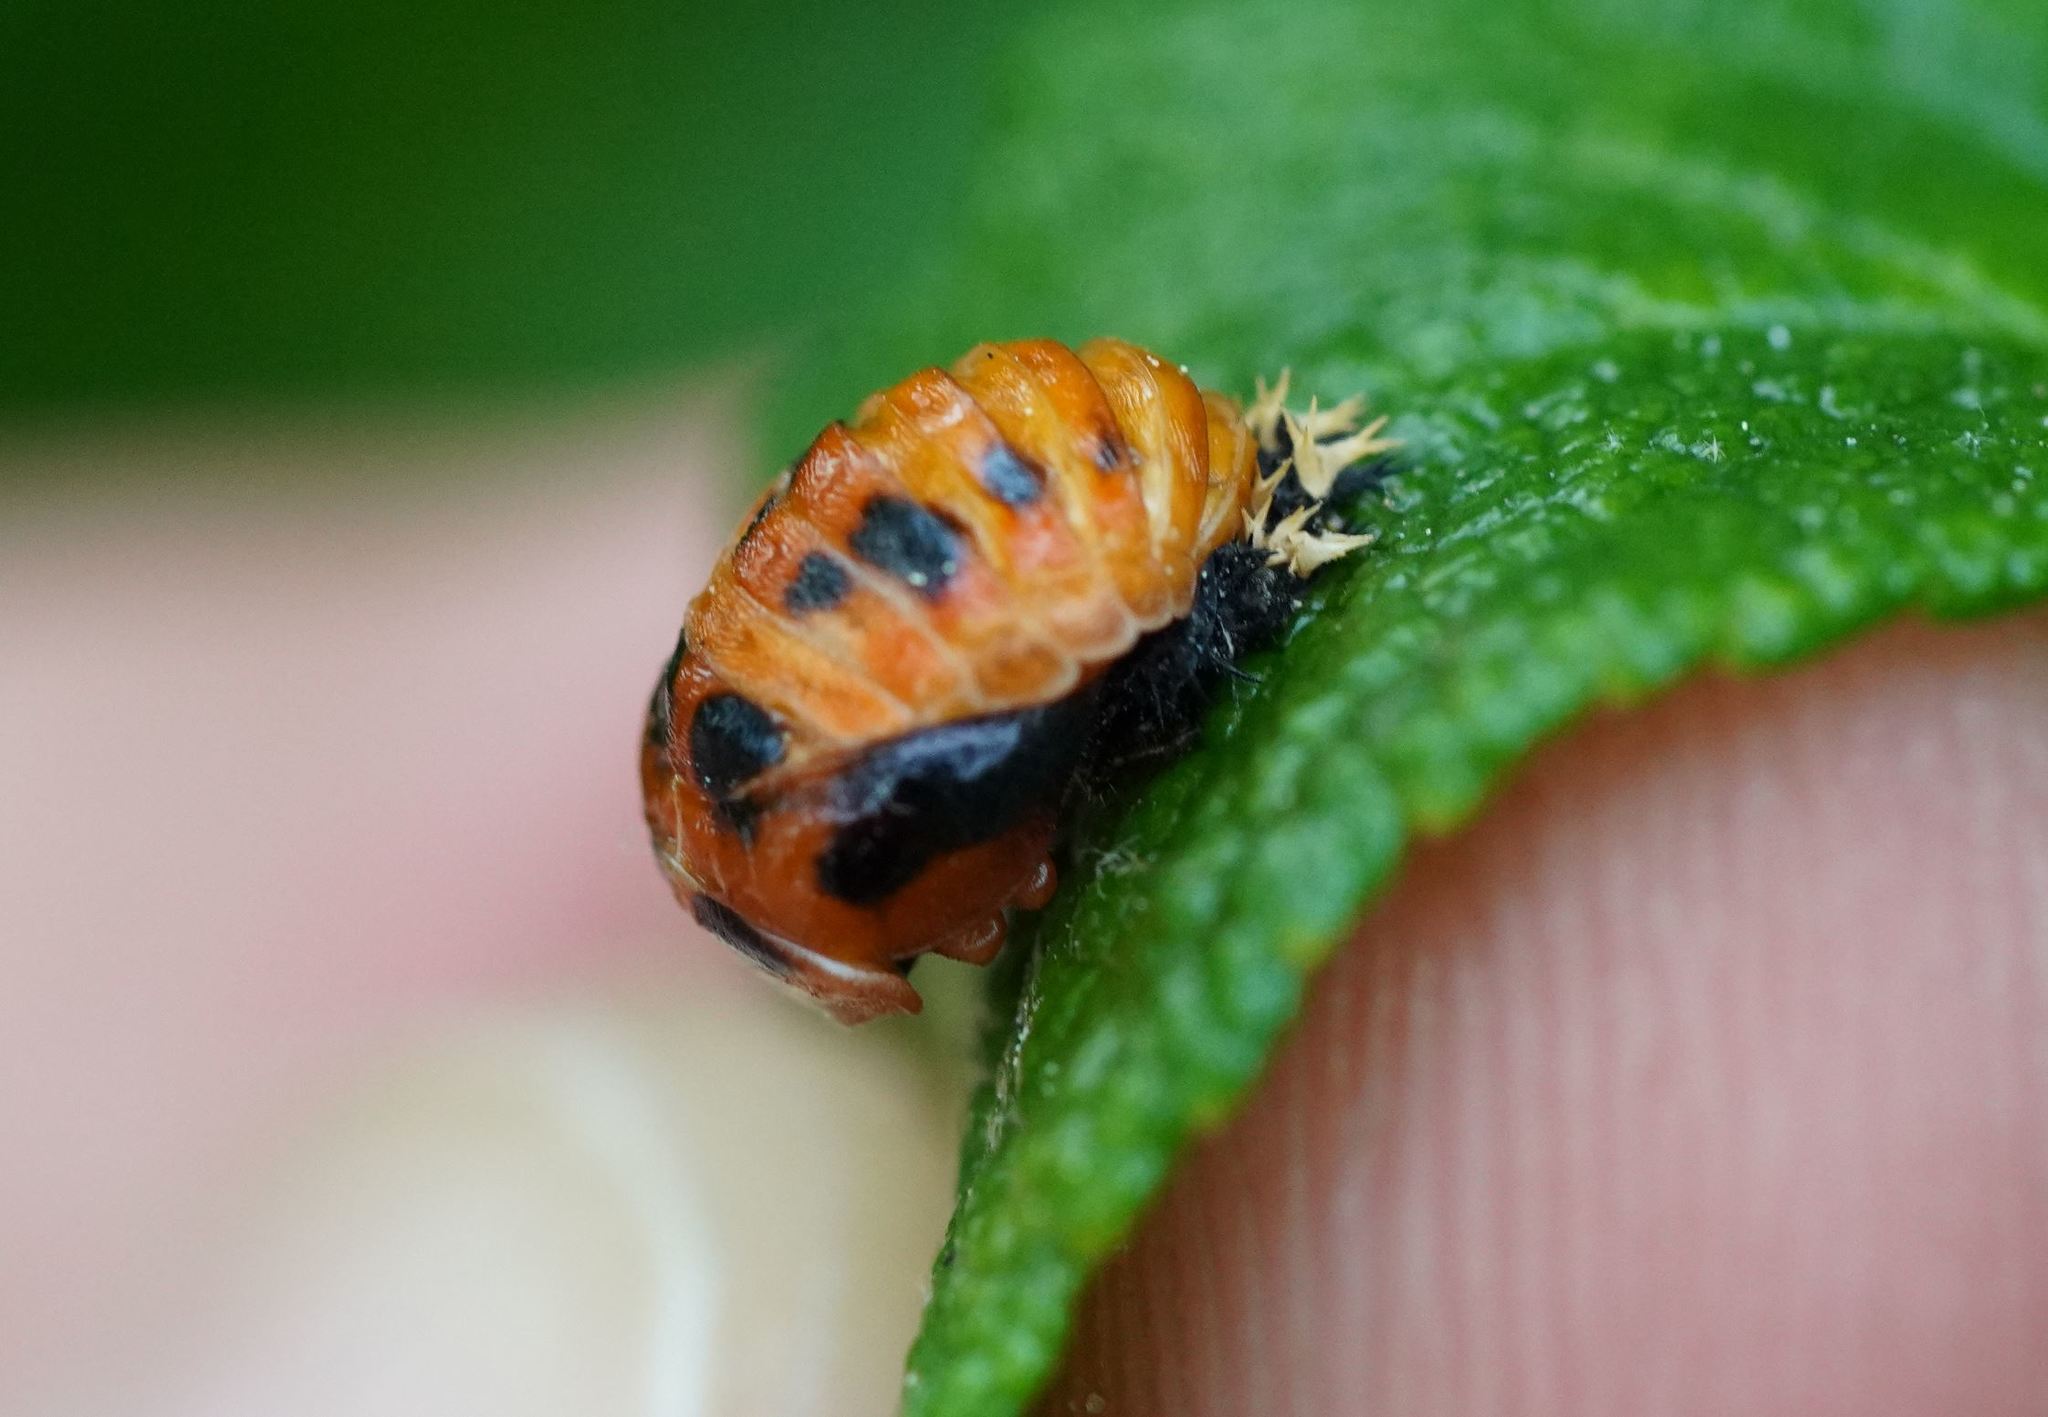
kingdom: Animalia
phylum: Arthropoda
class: Insecta
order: Coleoptera
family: Coccinellidae
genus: Harmonia
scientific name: Harmonia axyridis
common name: Harlequin ladybird
